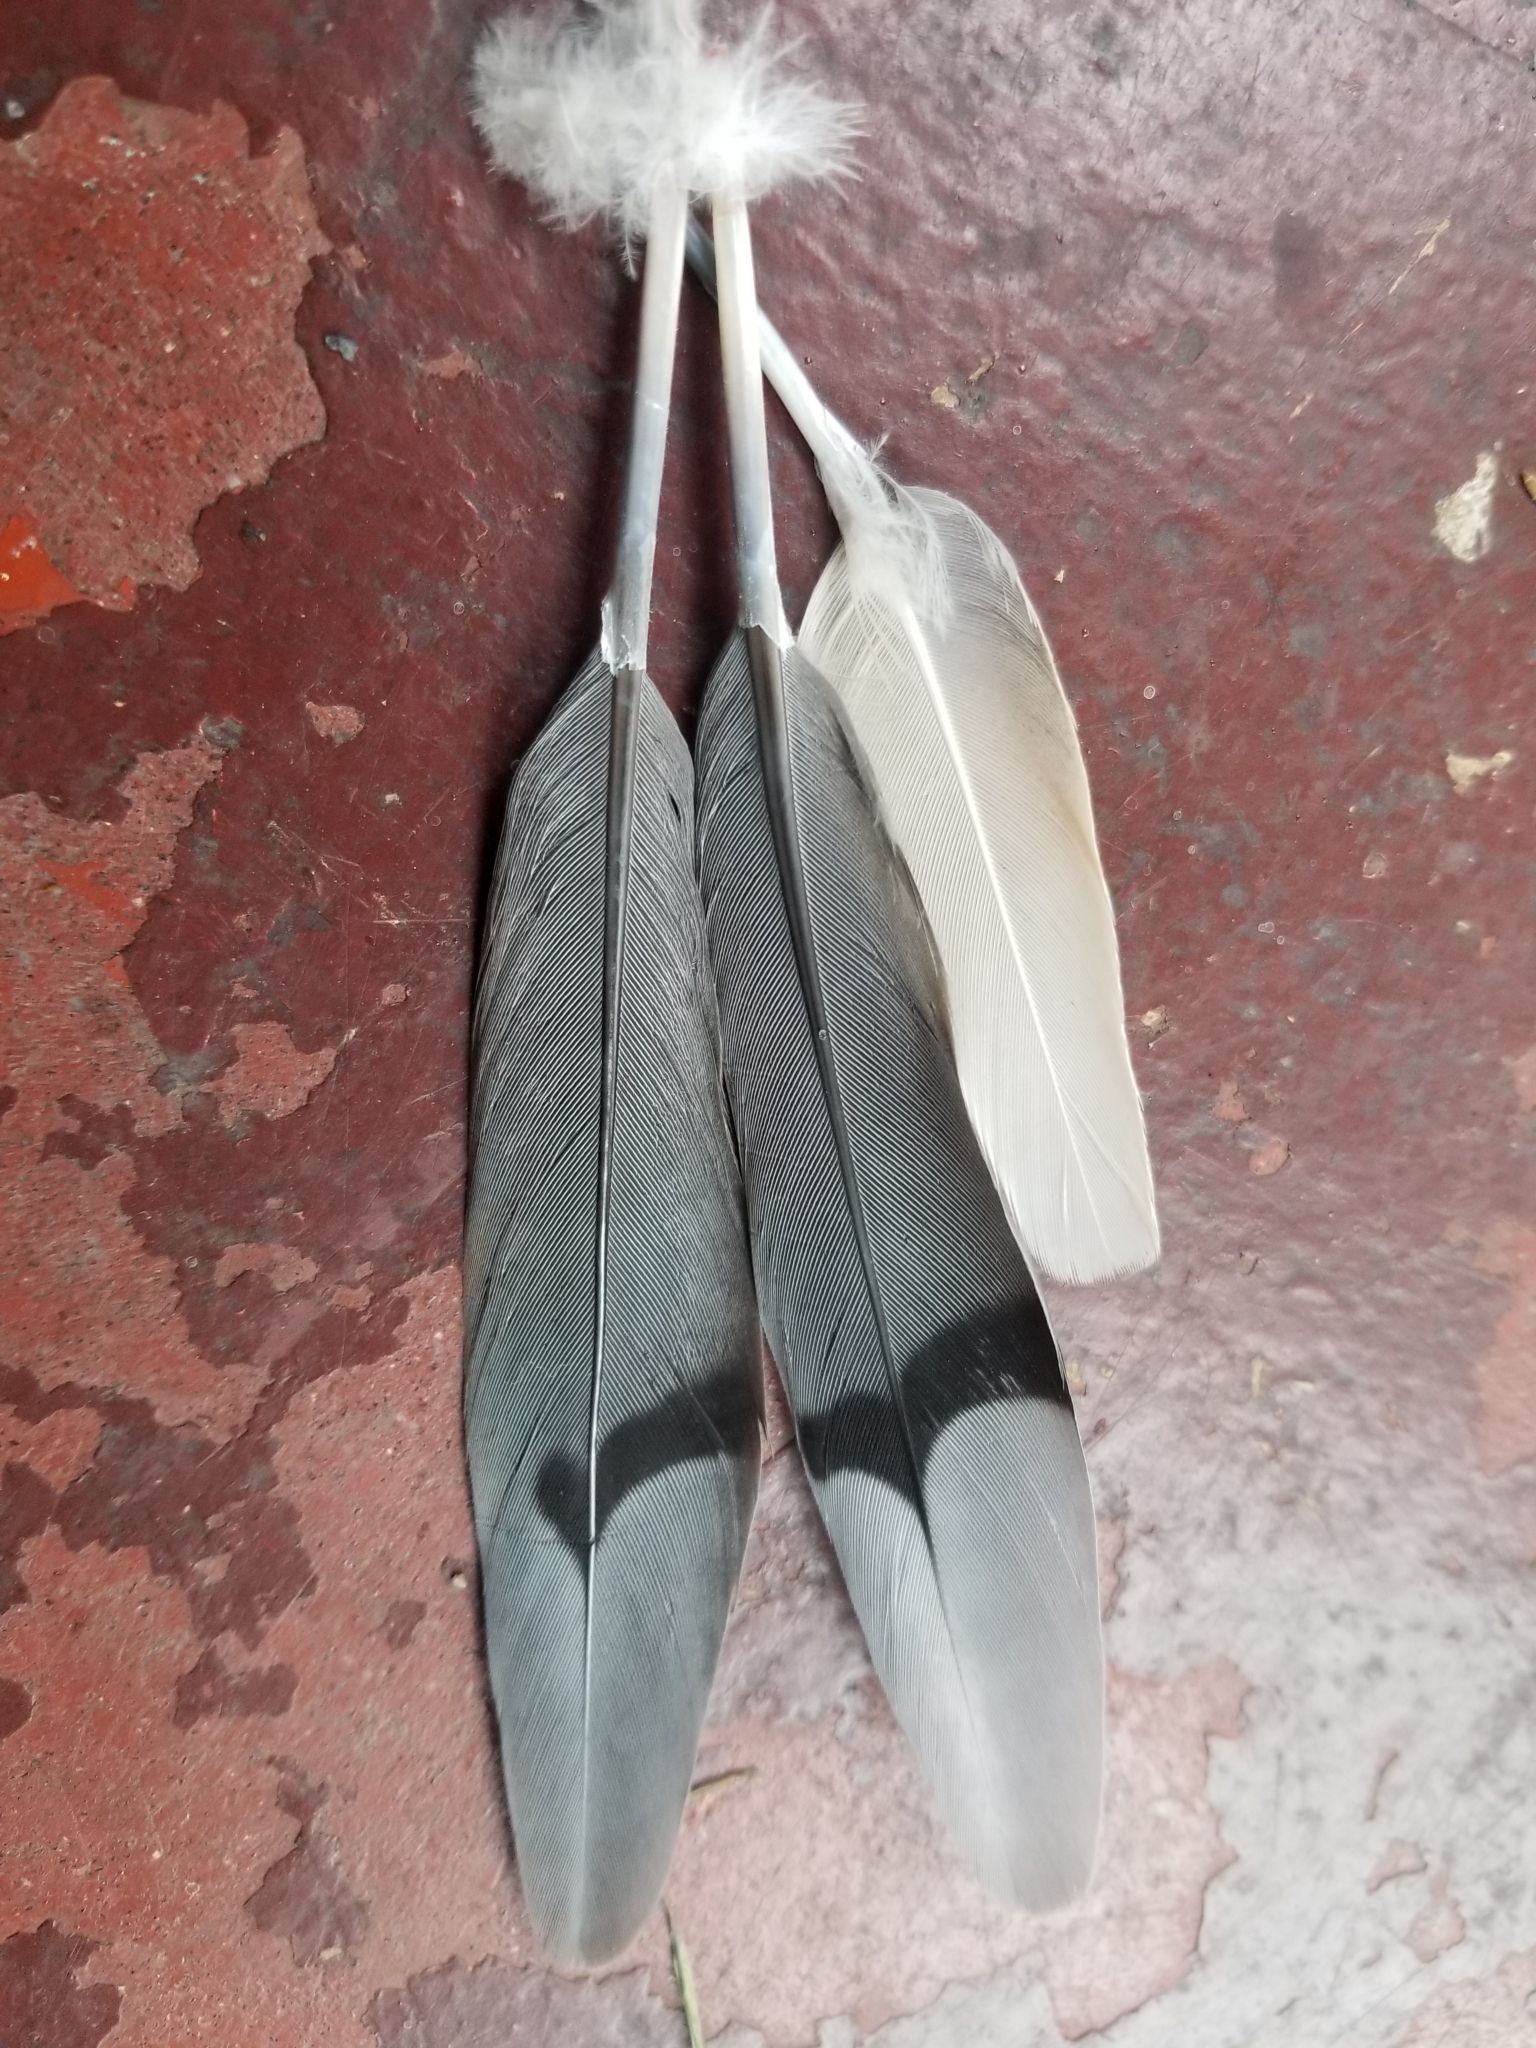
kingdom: Animalia
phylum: Chordata
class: Aves
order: Columbiformes
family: Columbidae
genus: Zenaida
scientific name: Zenaida macroura
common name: Mourning dove
